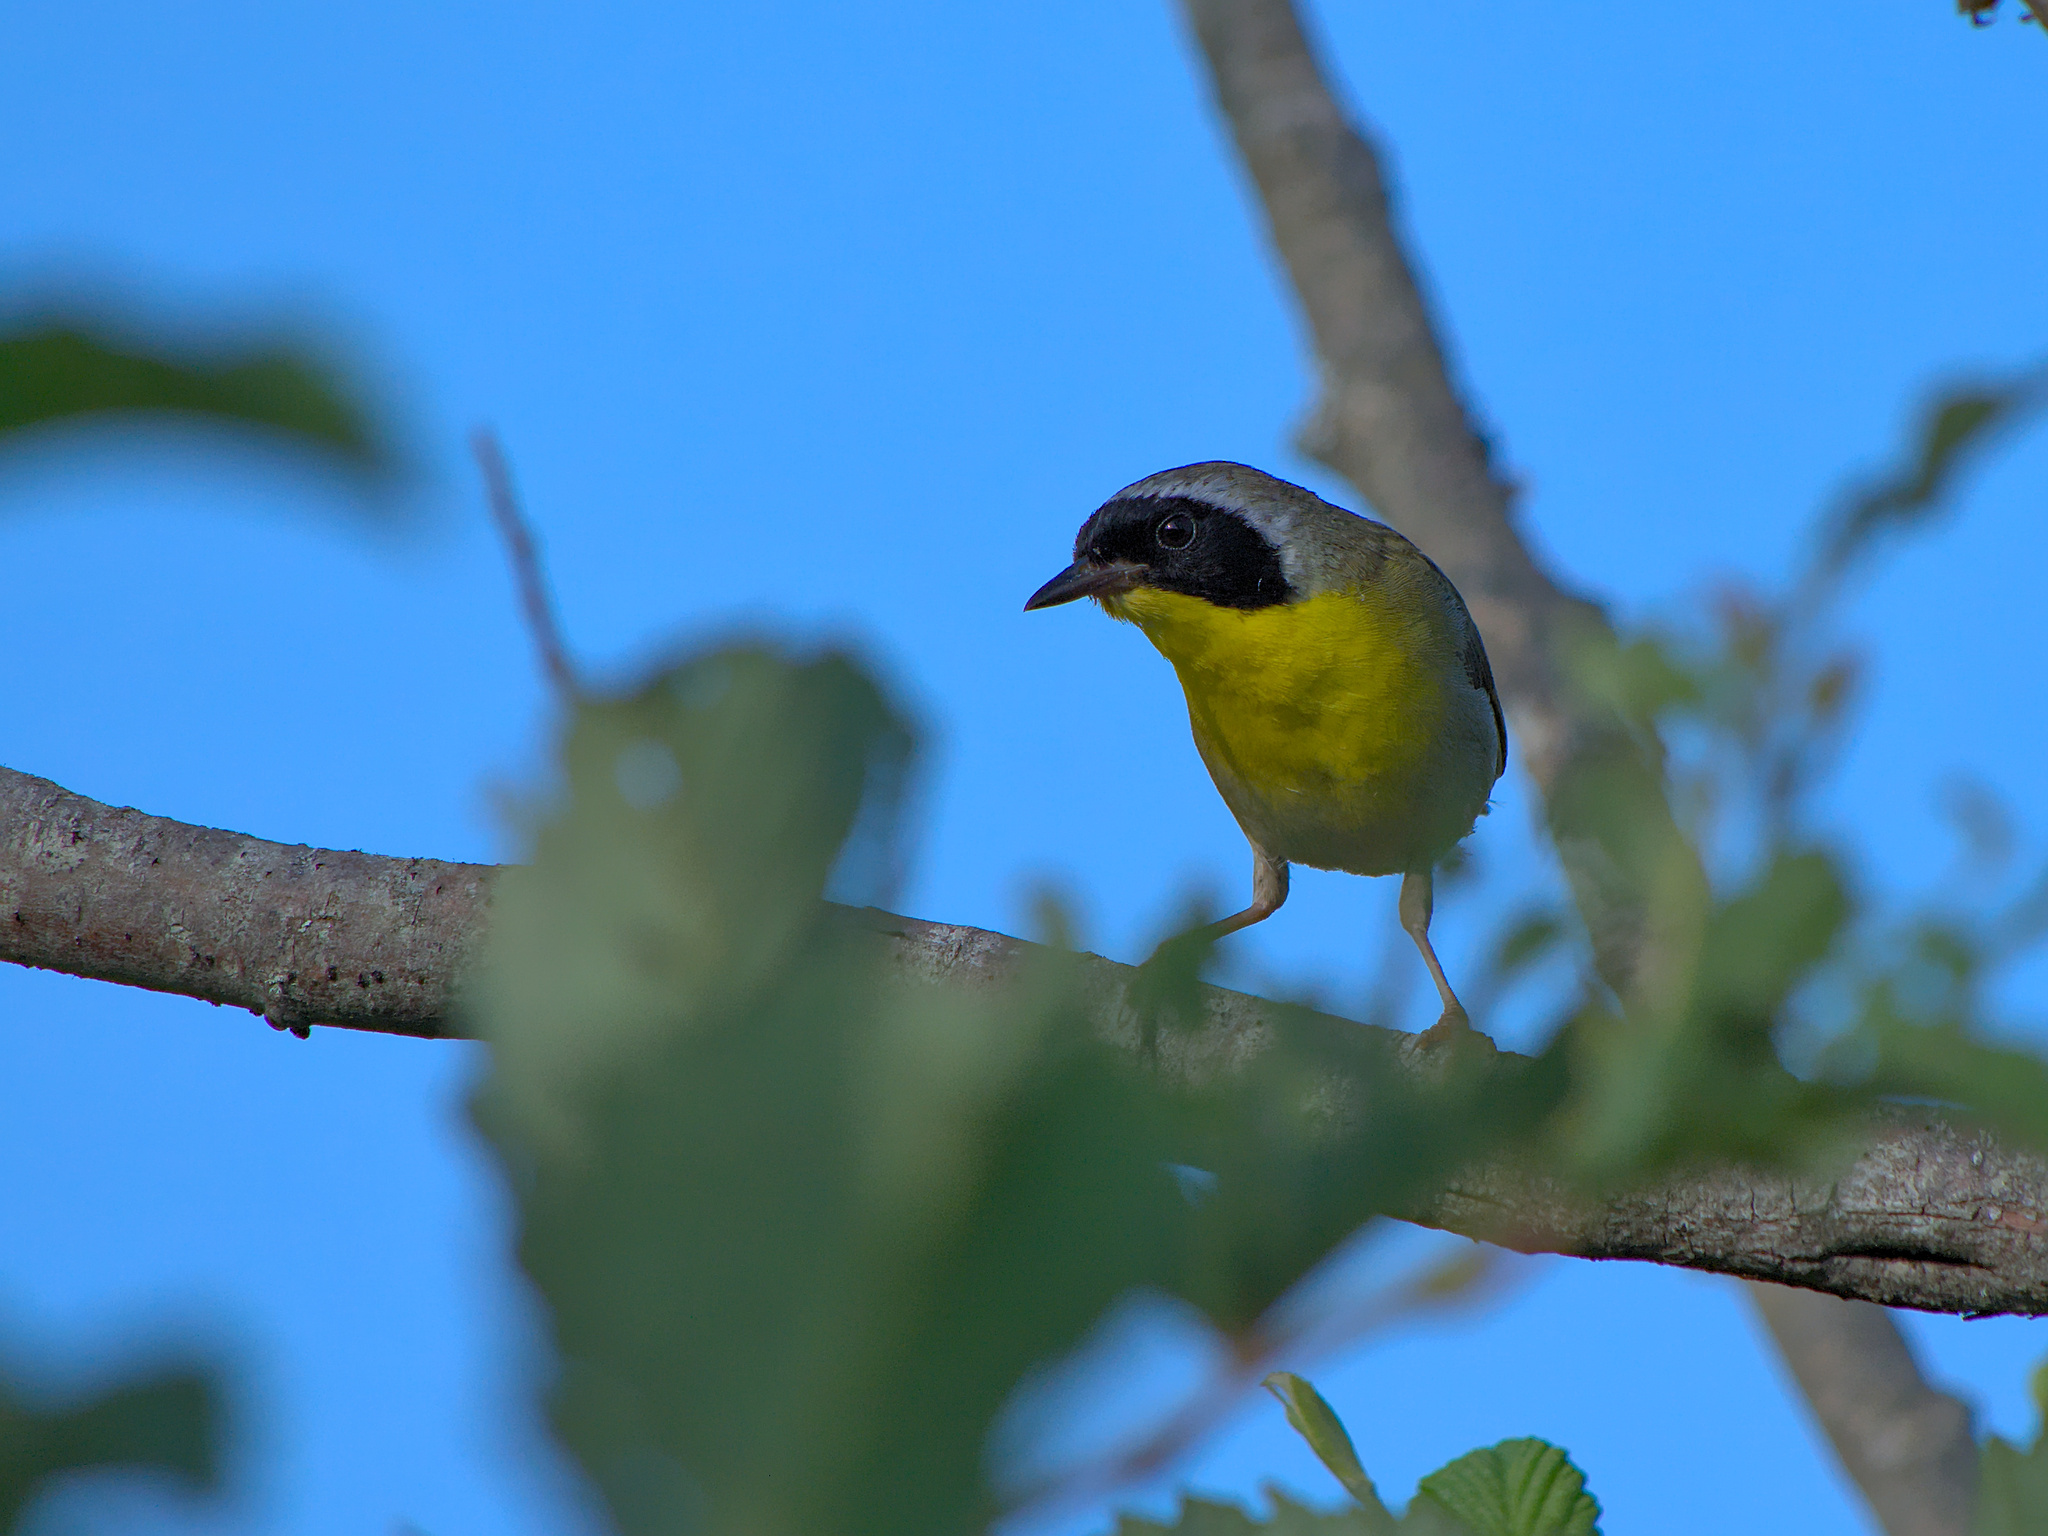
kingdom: Animalia
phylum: Chordata
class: Aves
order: Passeriformes
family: Parulidae
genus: Geothlypis
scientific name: Geothlypis trichas
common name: Common yellowthroat
